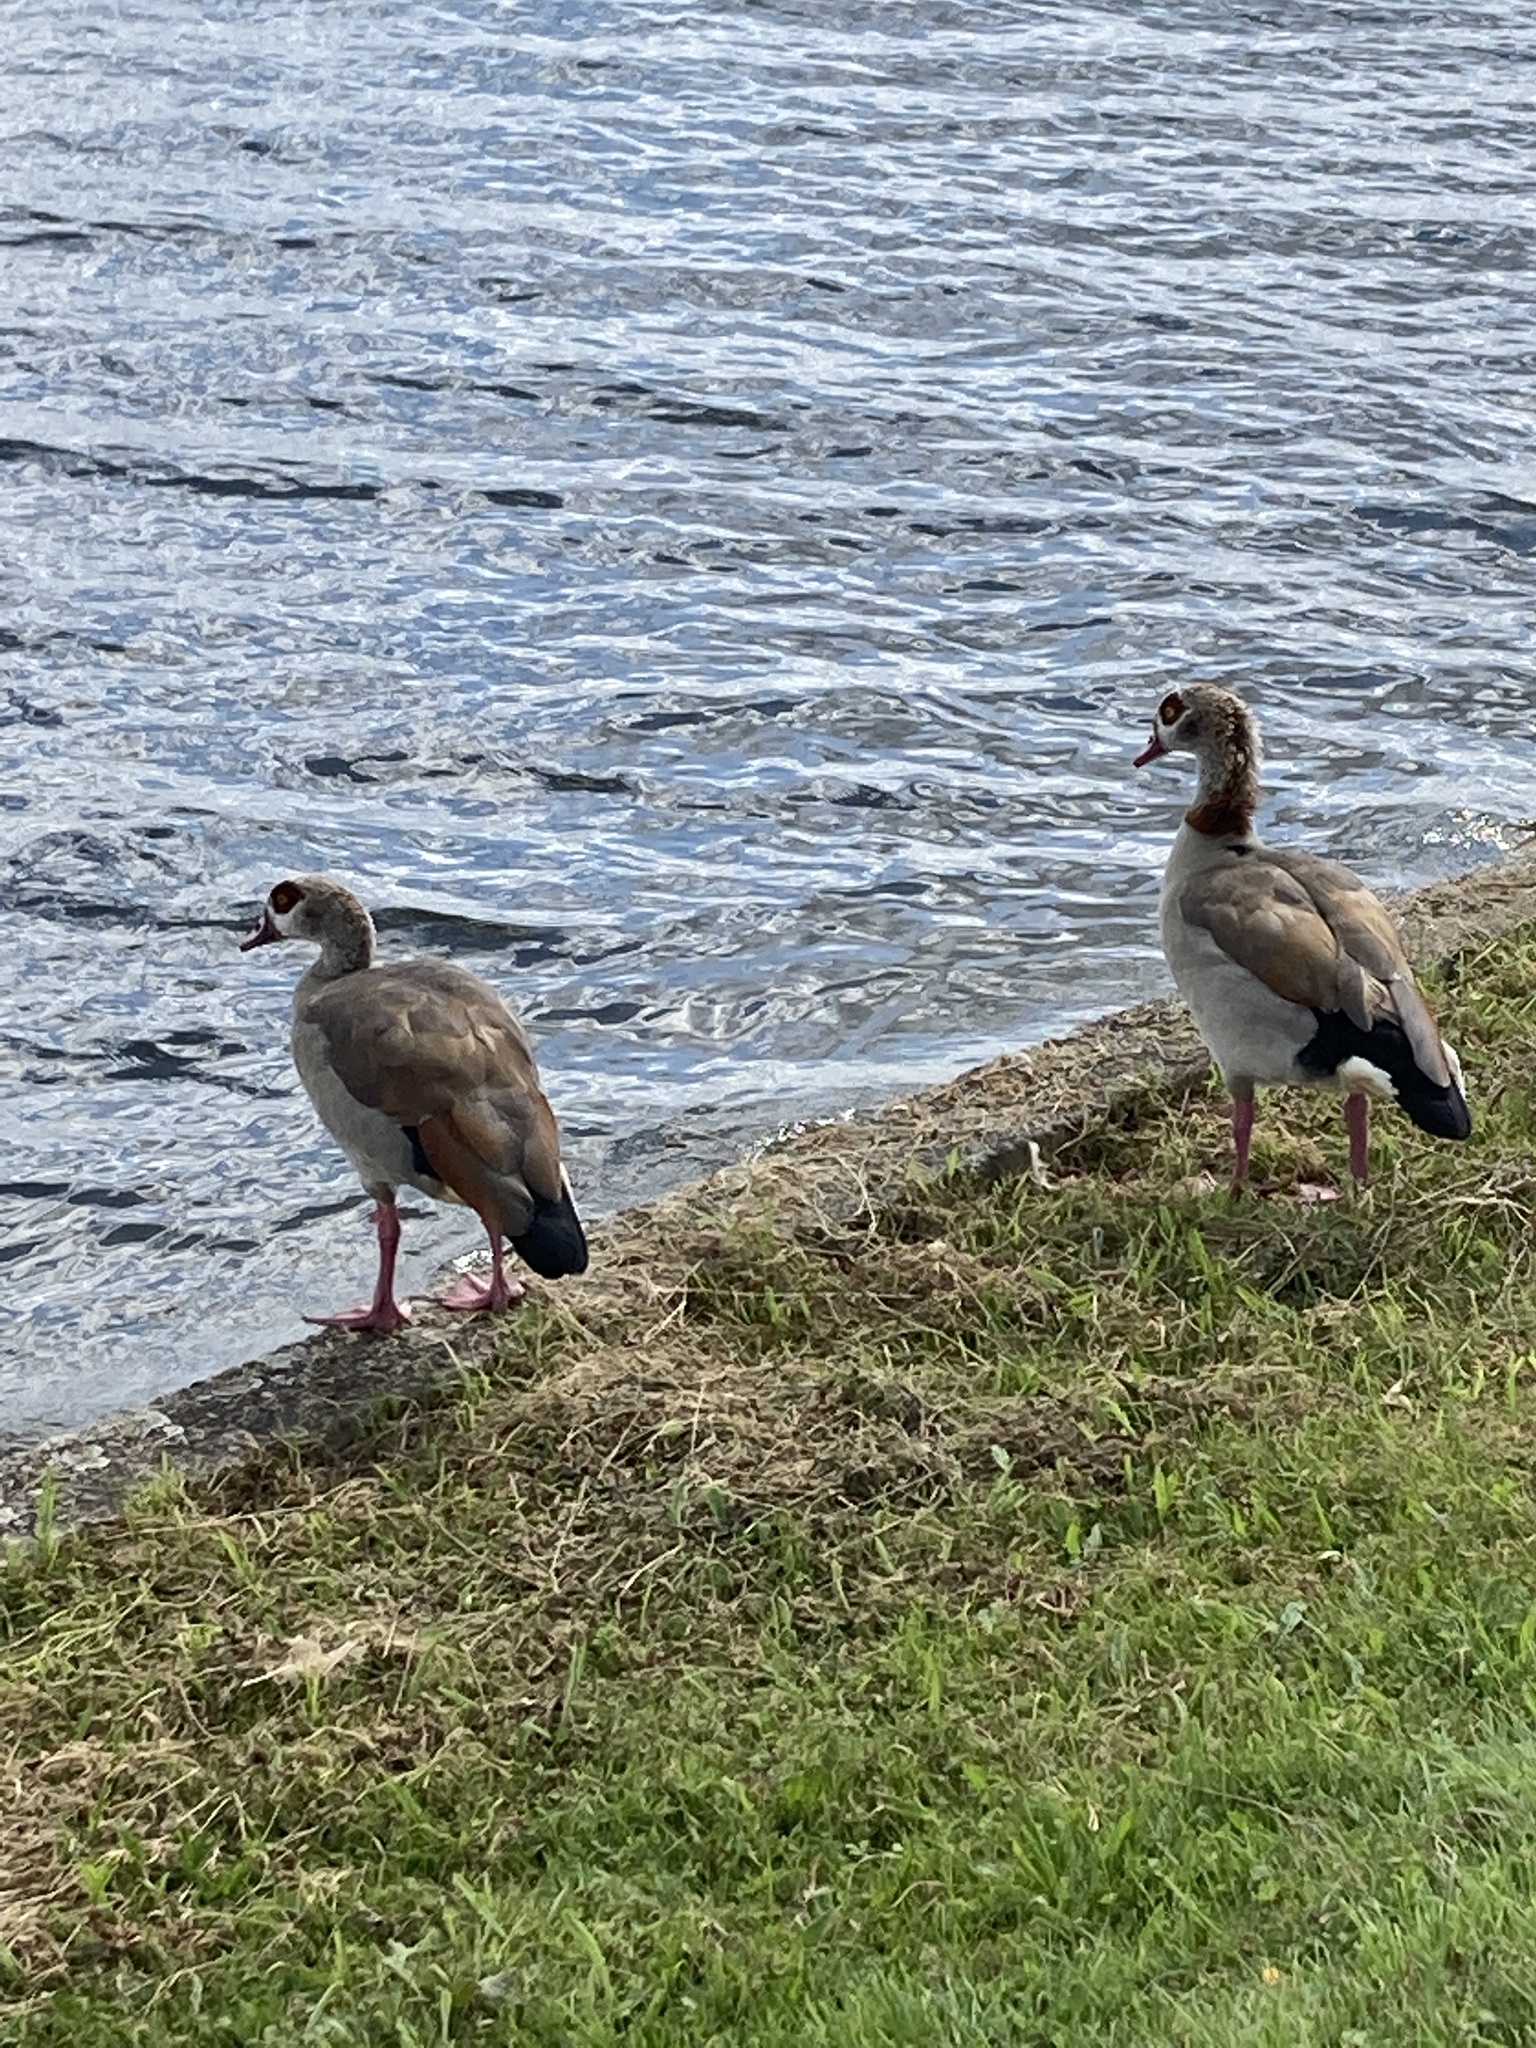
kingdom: Animalia
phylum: Chordata
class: Aves
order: Anseriformes
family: Anatidae
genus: Alopochen
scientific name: Alopochen aegyptiaca
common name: Egyptian goose
